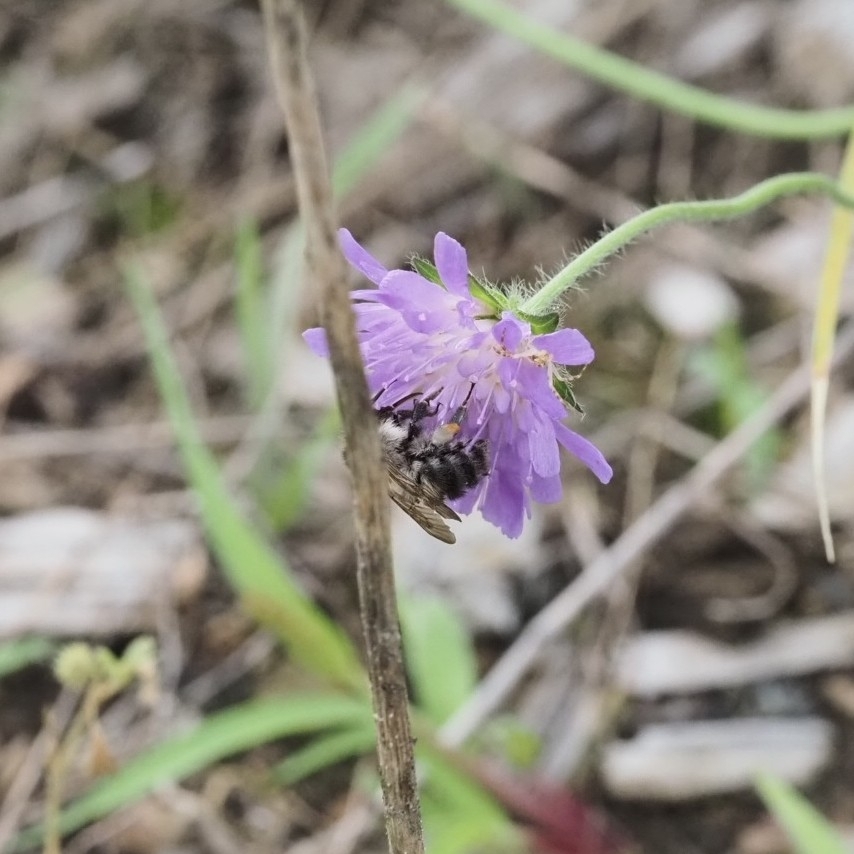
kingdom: Animalia
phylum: Arthropoda
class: Insecta
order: Hymenoptera
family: Apidae
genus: Bombus
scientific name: Bombus pascuorum
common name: Common carder bee
